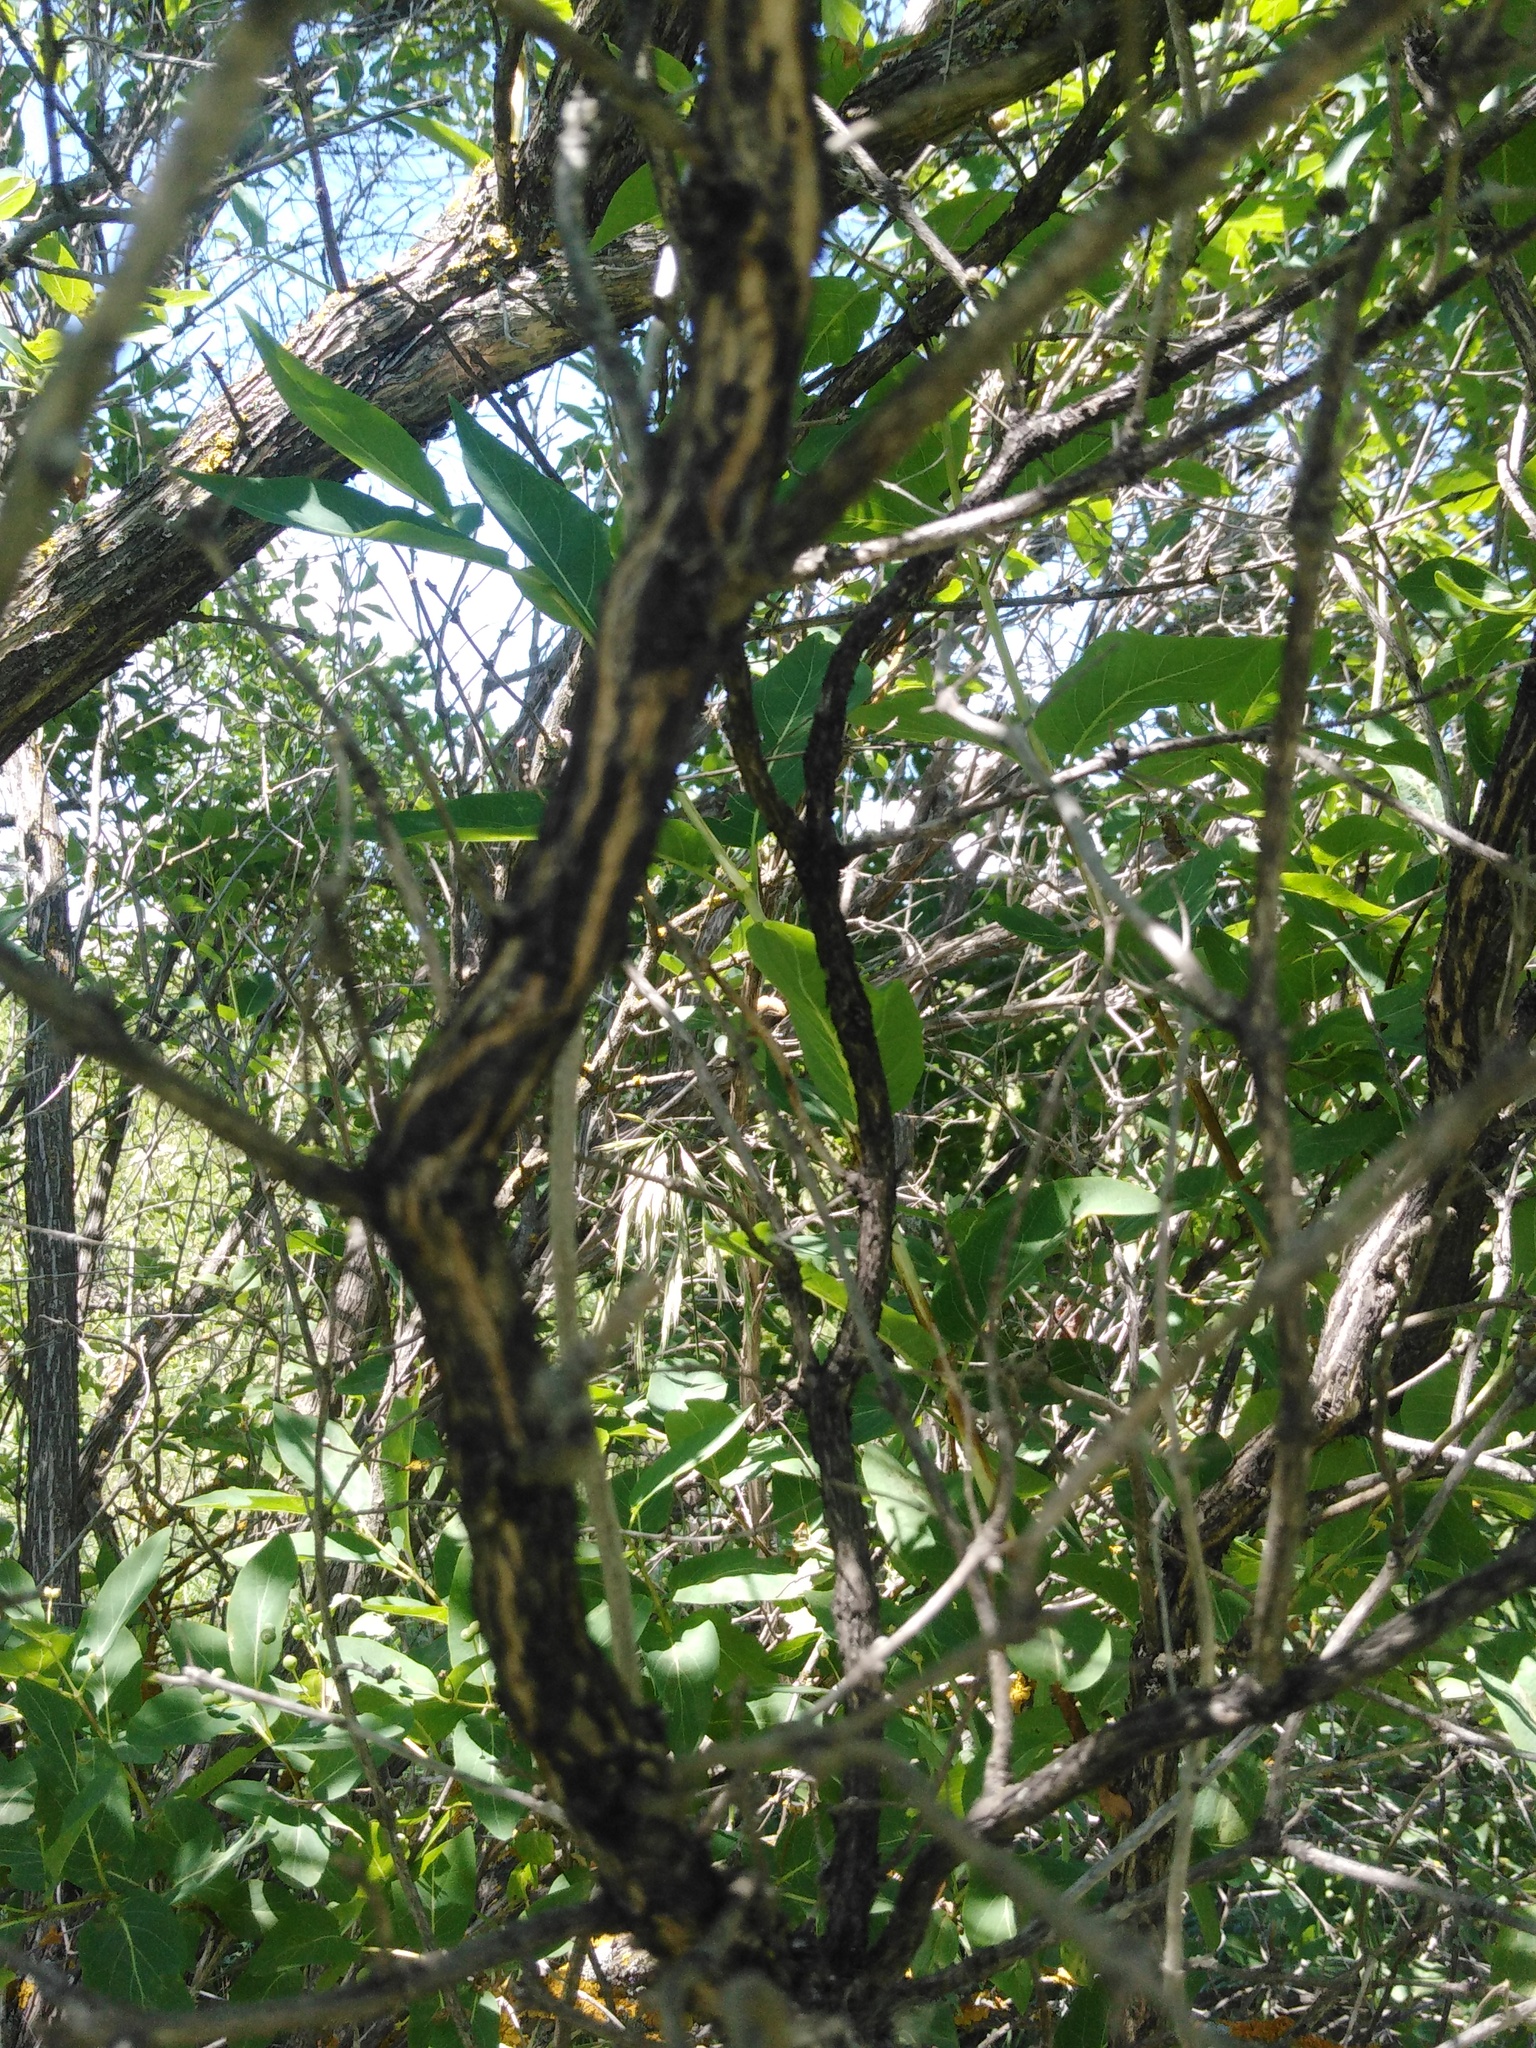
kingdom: Plantae
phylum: Tracheophyta
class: Magnoliopsida
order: Dipsacales
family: Caprifoliaceae
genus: Lonicera
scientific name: Lonicera tatarica
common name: Tatarian honeysuckle
